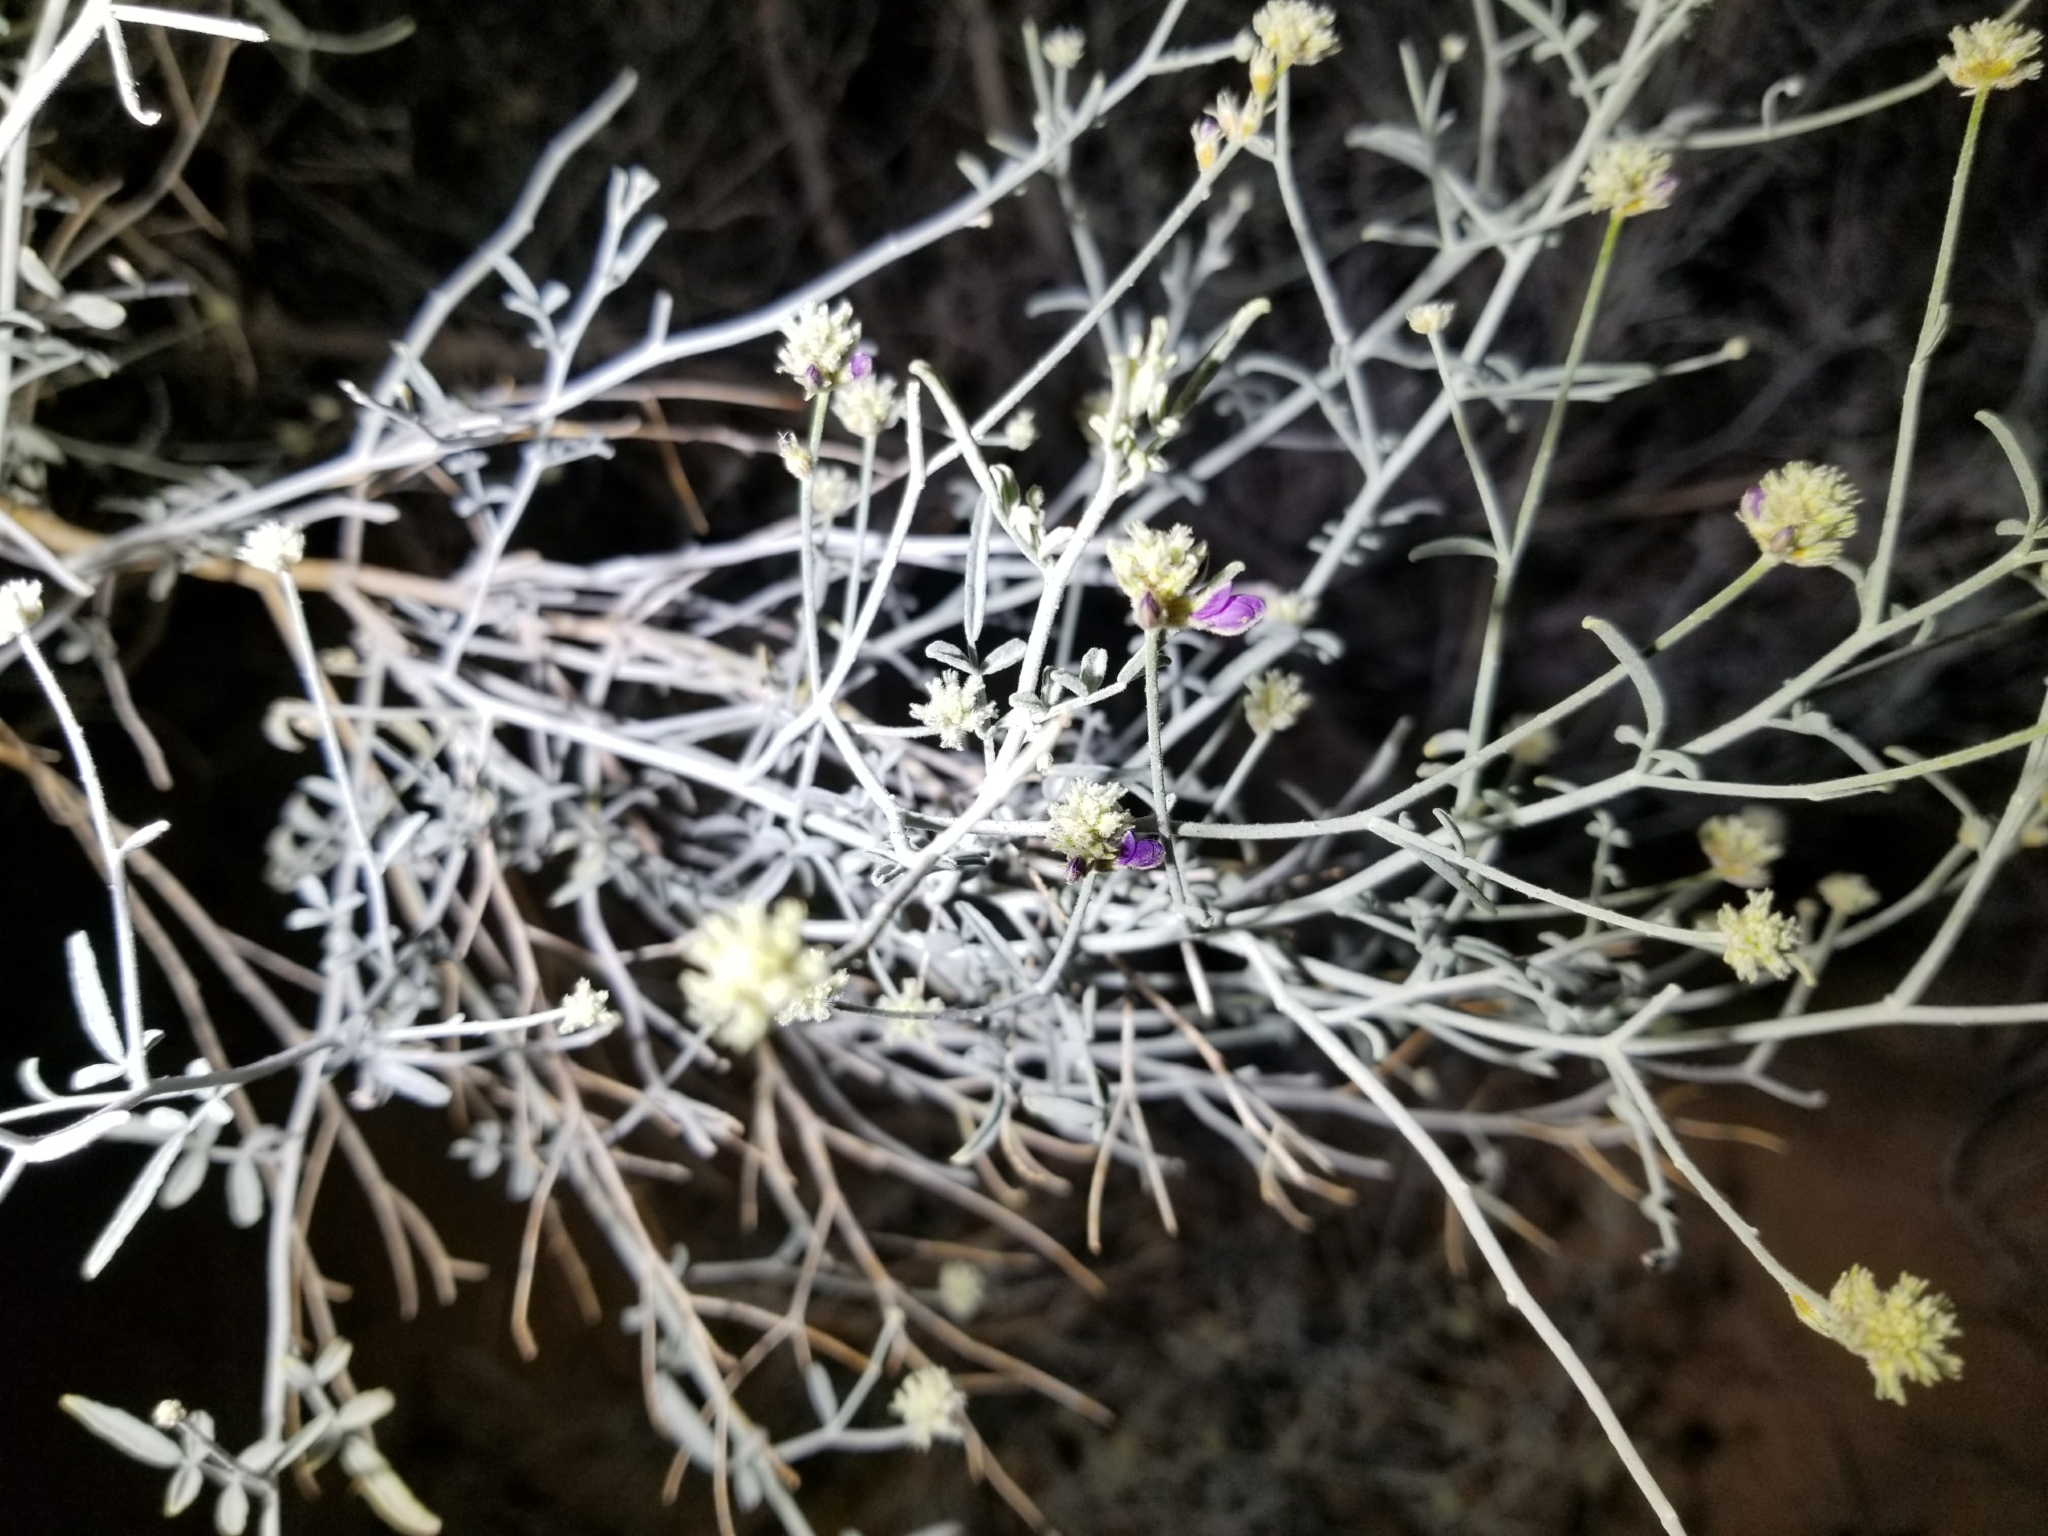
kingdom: Plantae
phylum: Tracheophyta
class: Magnoliopsida
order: Fabales
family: Fabaceae
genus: Psorothamnus
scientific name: Psorothamnus emoryi
